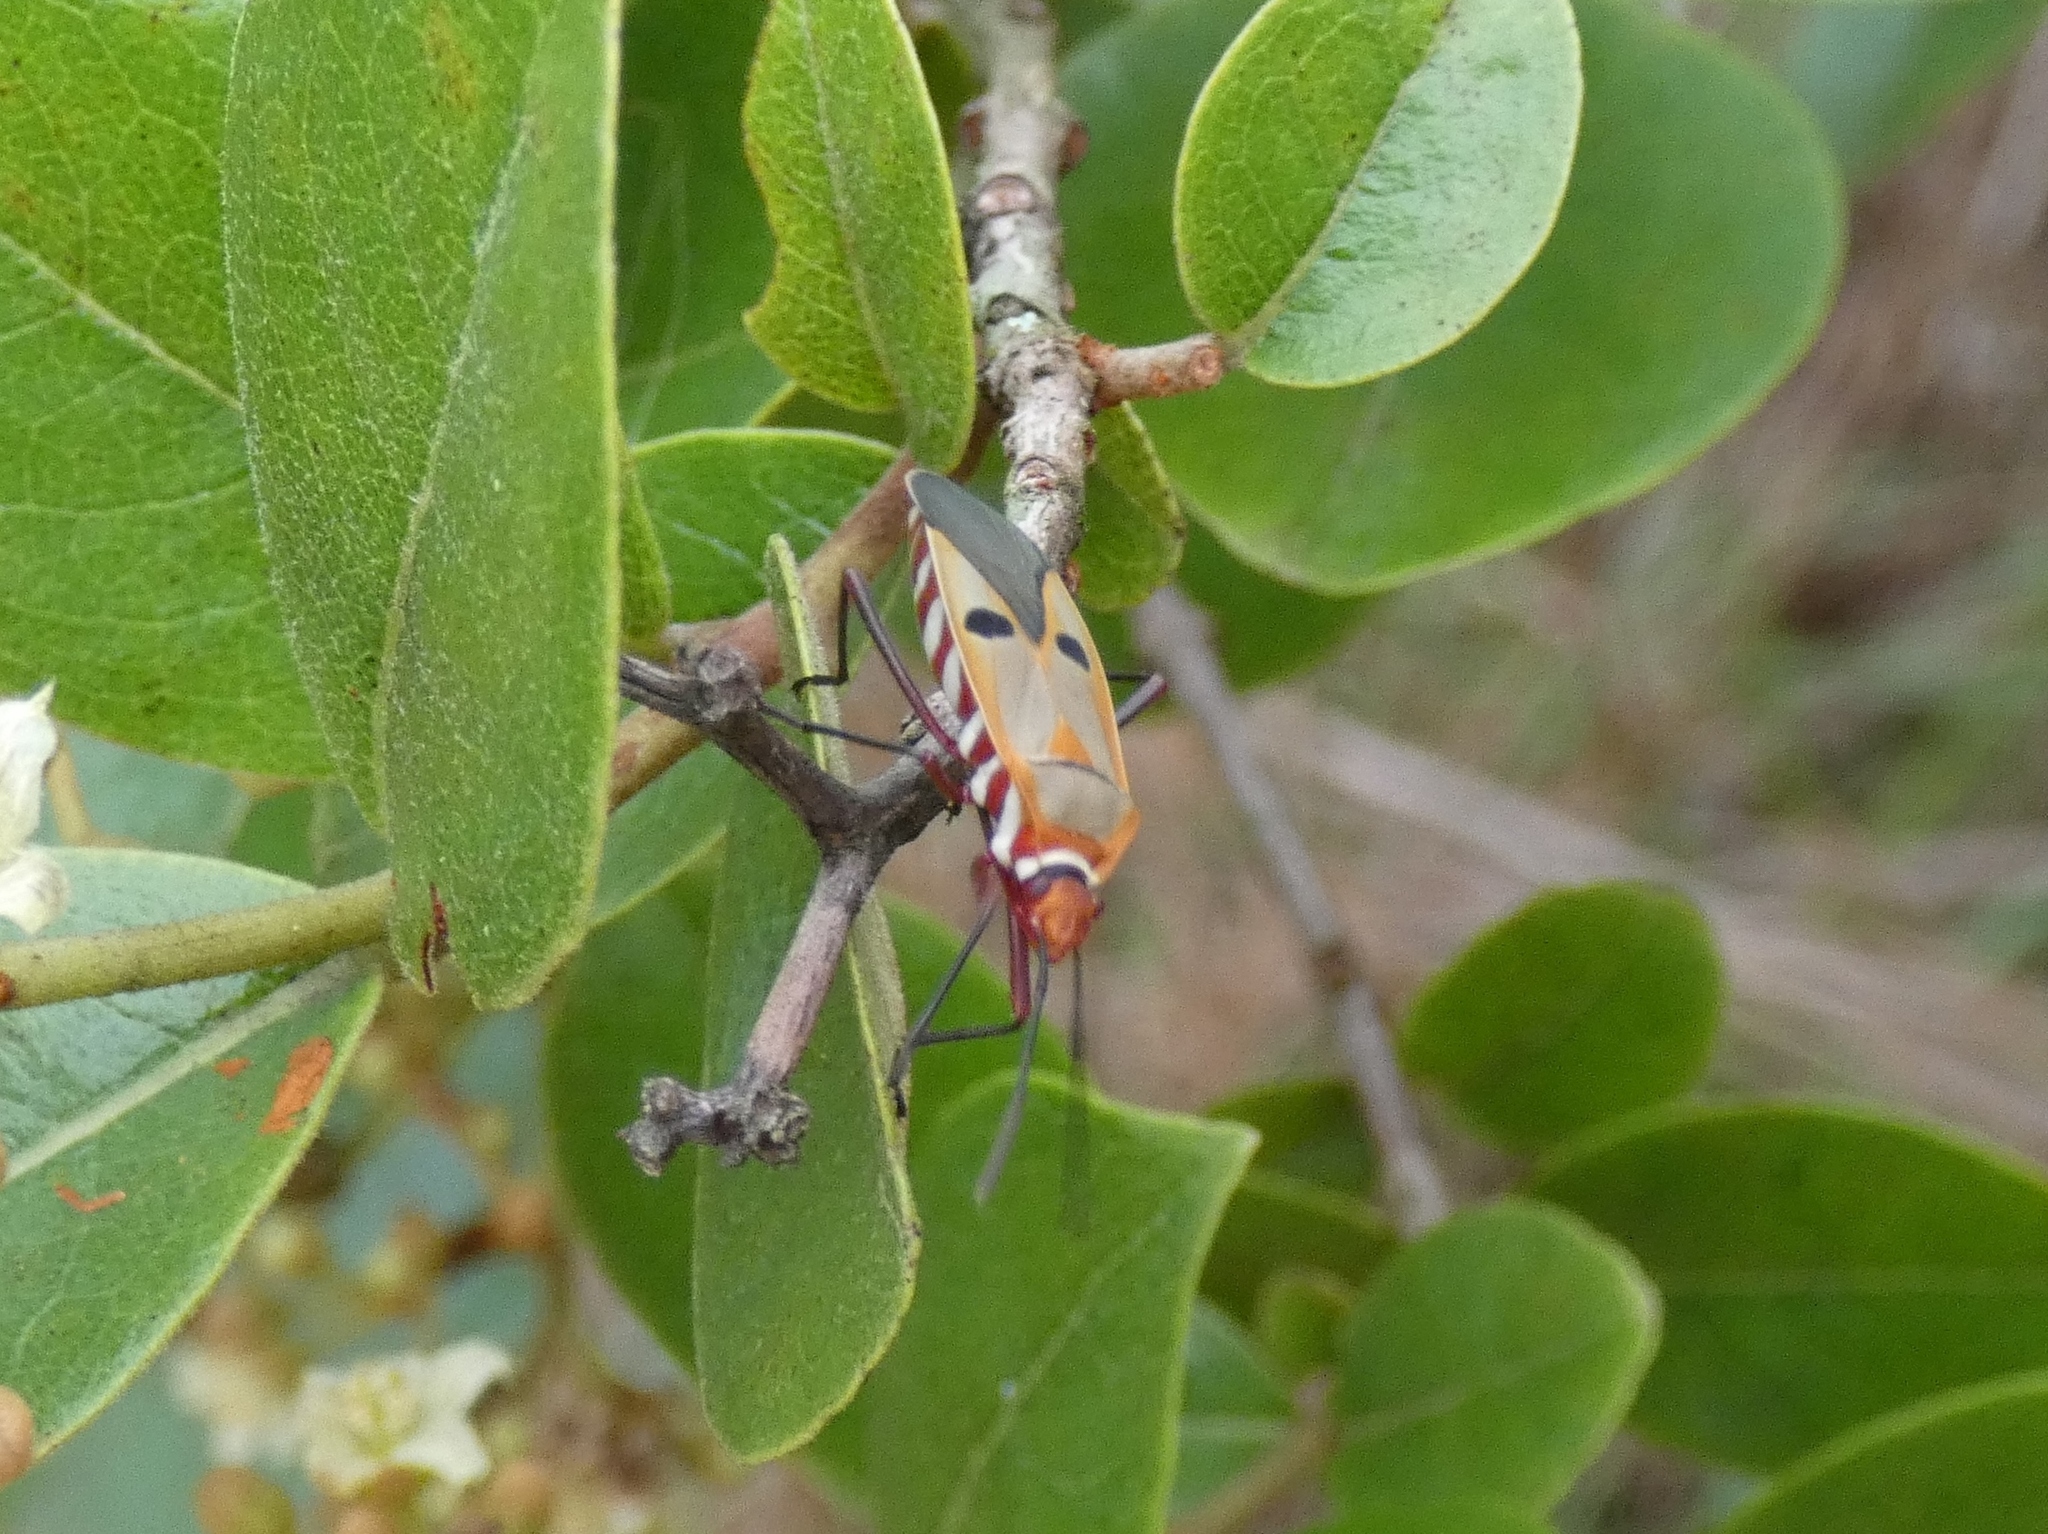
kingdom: Animalia
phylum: Arthropoda
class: Insecta
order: Hemiptera
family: Pyrrhocoridae
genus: Dysdercus
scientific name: Dysdercus superstitiosus
